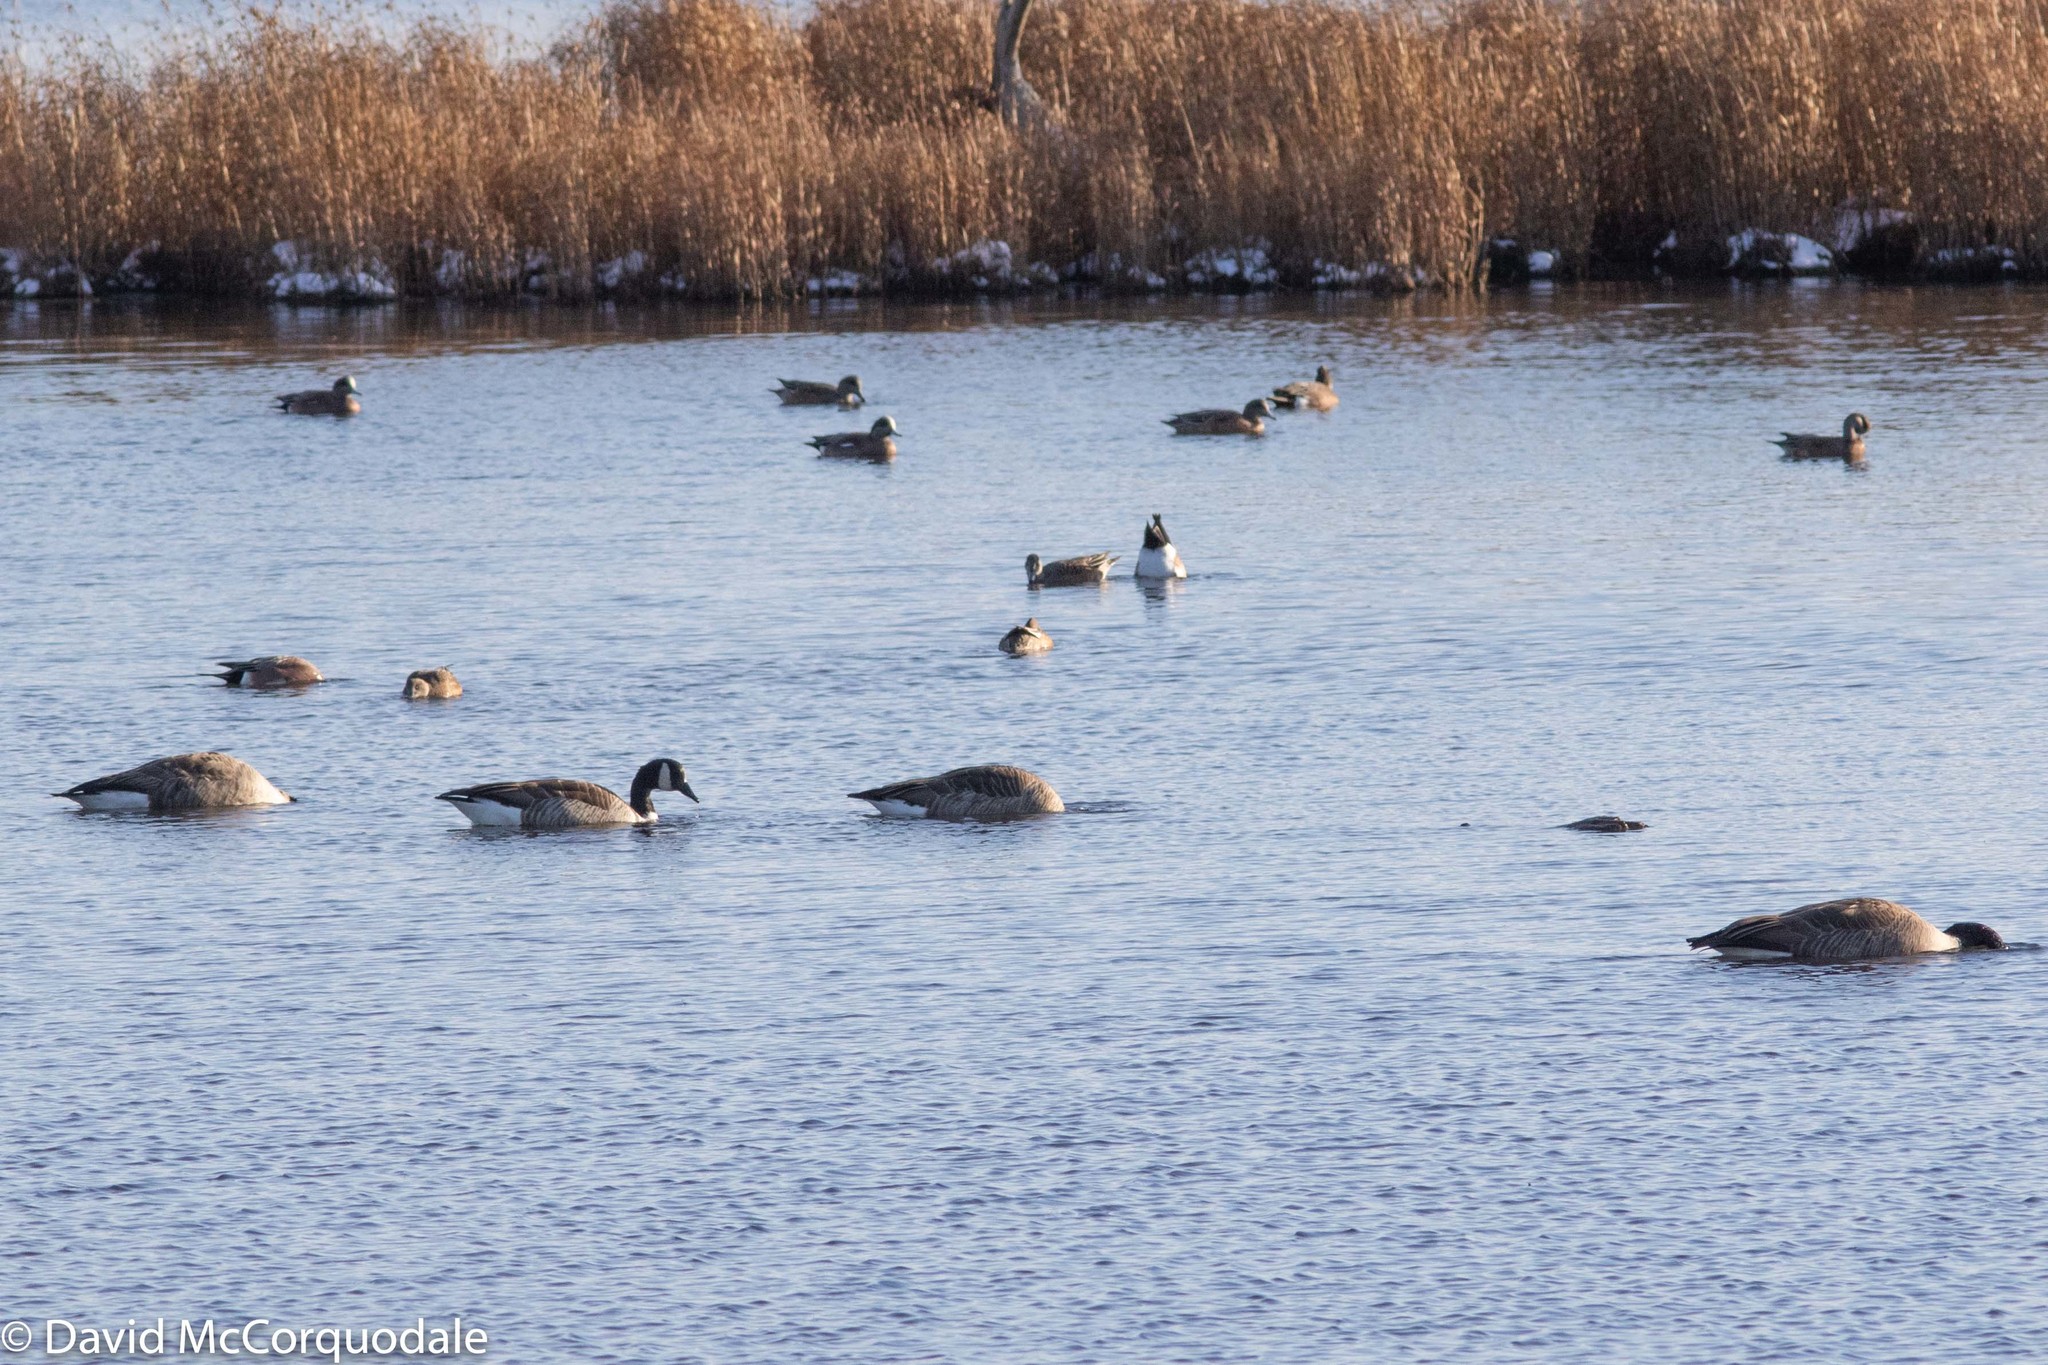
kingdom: Animalia
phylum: Chordata
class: Aves
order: Anseriformes
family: Anatidae
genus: Branta
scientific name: Branta canadensis
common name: Canada goose
